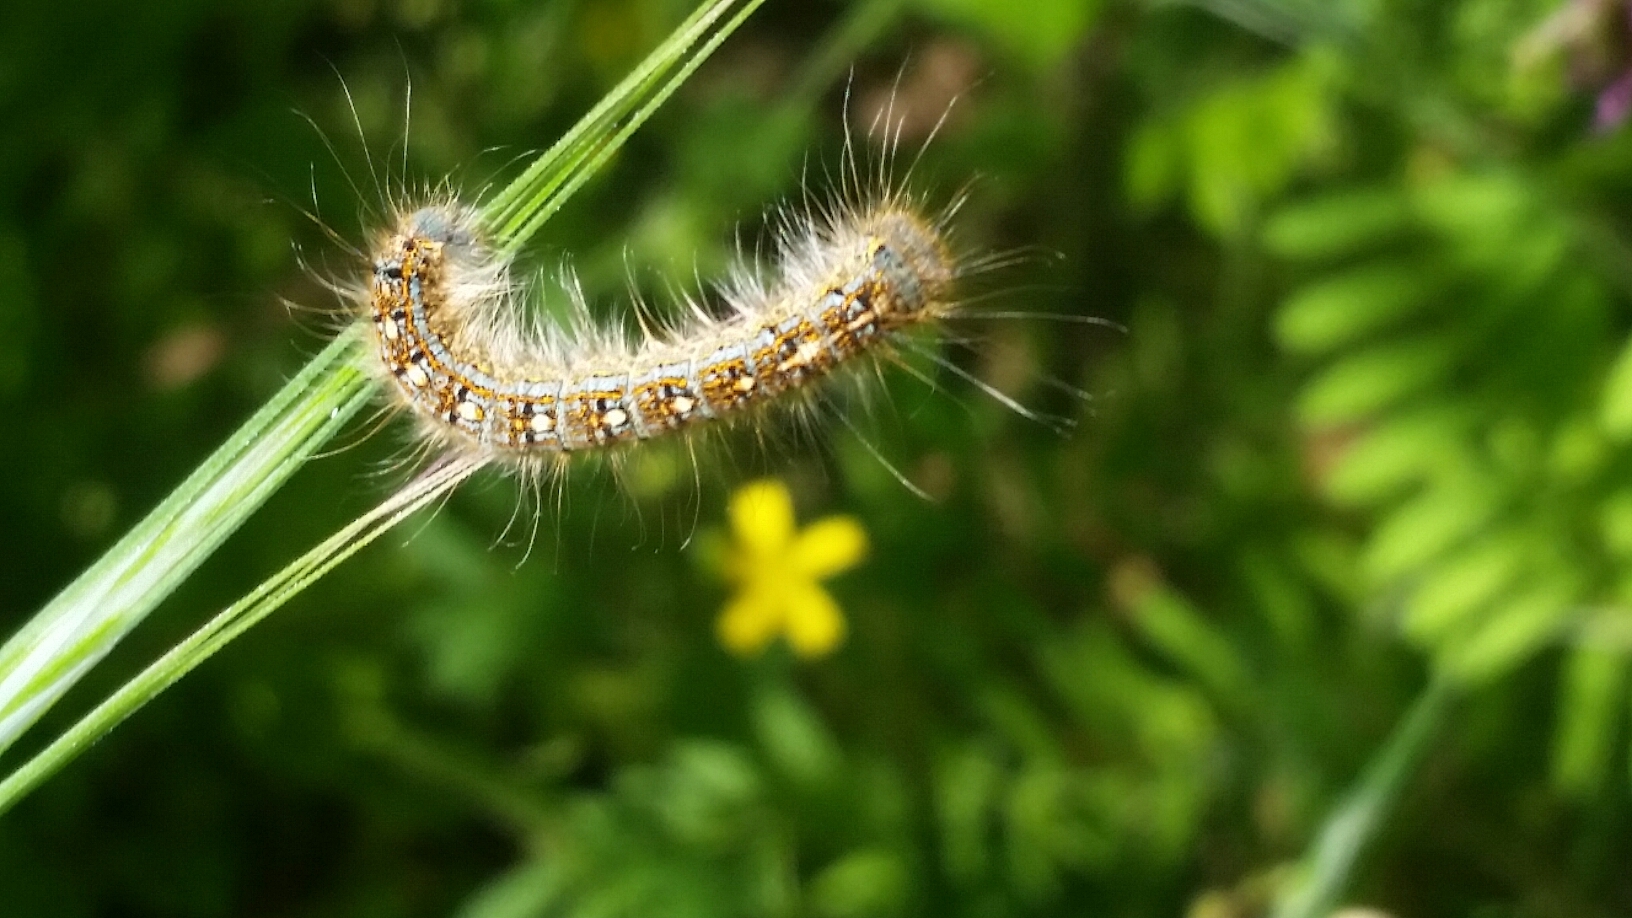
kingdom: Animalia
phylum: Arthropoda
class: Insecta
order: Lepidoptera
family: Lasiocampidae
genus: Malacosoma
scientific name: Malacosoma disstria
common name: Forest tent caterpillar
